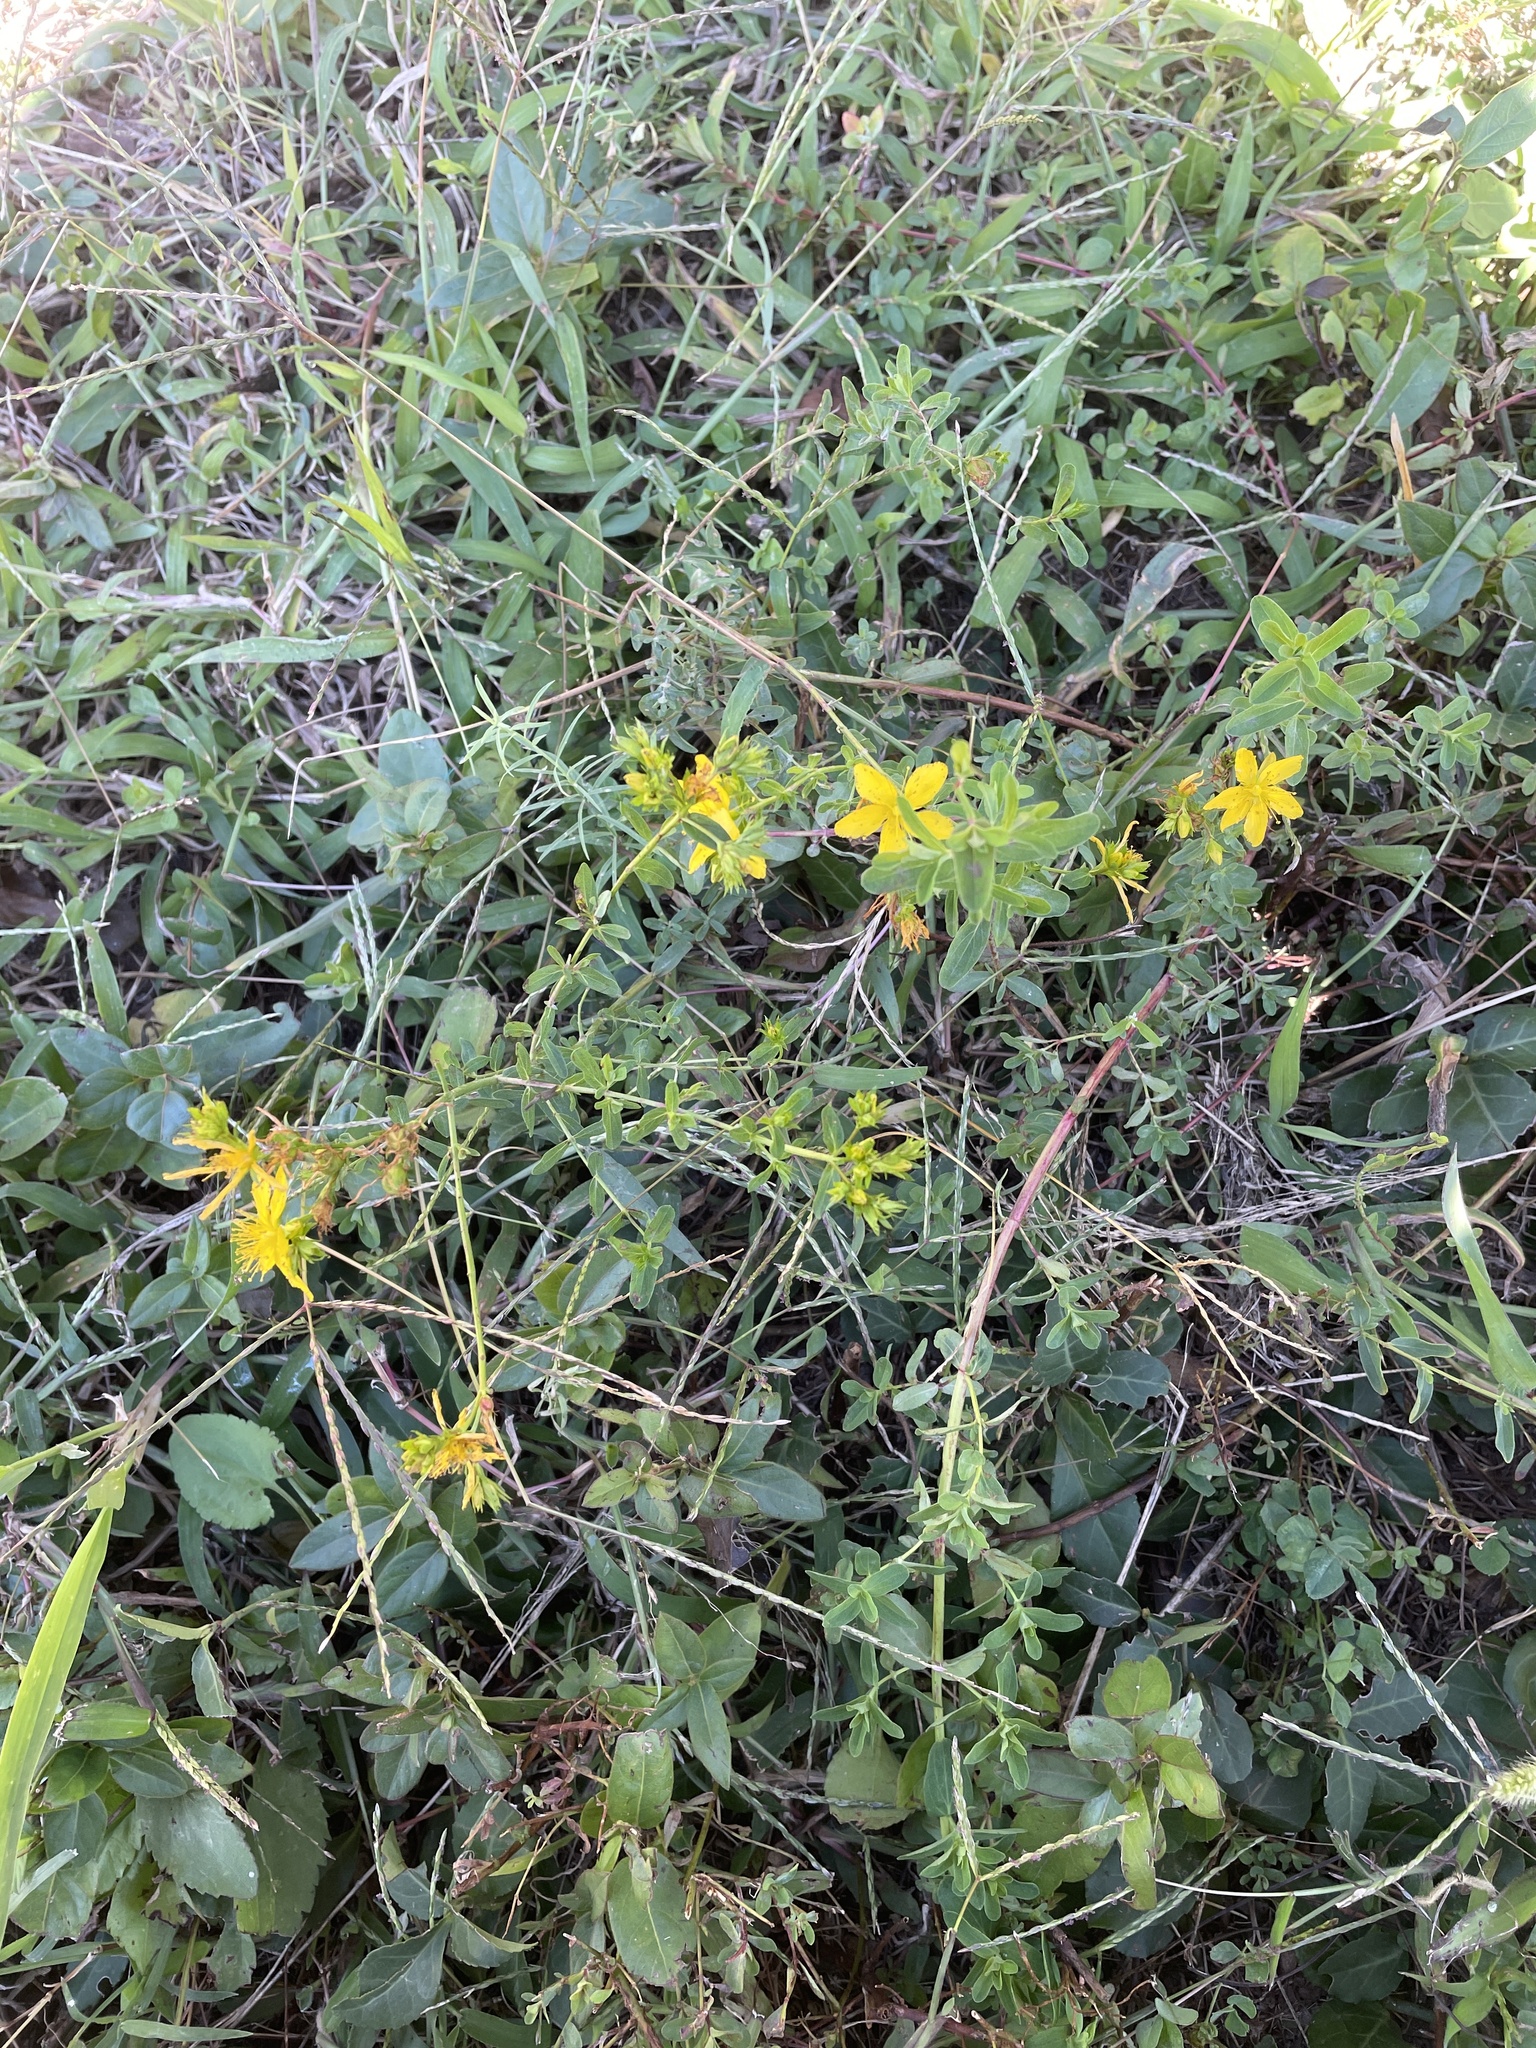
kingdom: Plantae
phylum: Tracheophyta
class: Magnoliopsida
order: Malpighiales
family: Hypericaceae
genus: Hypericum
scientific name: Hypericum perforatum
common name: Common st. johnswort
